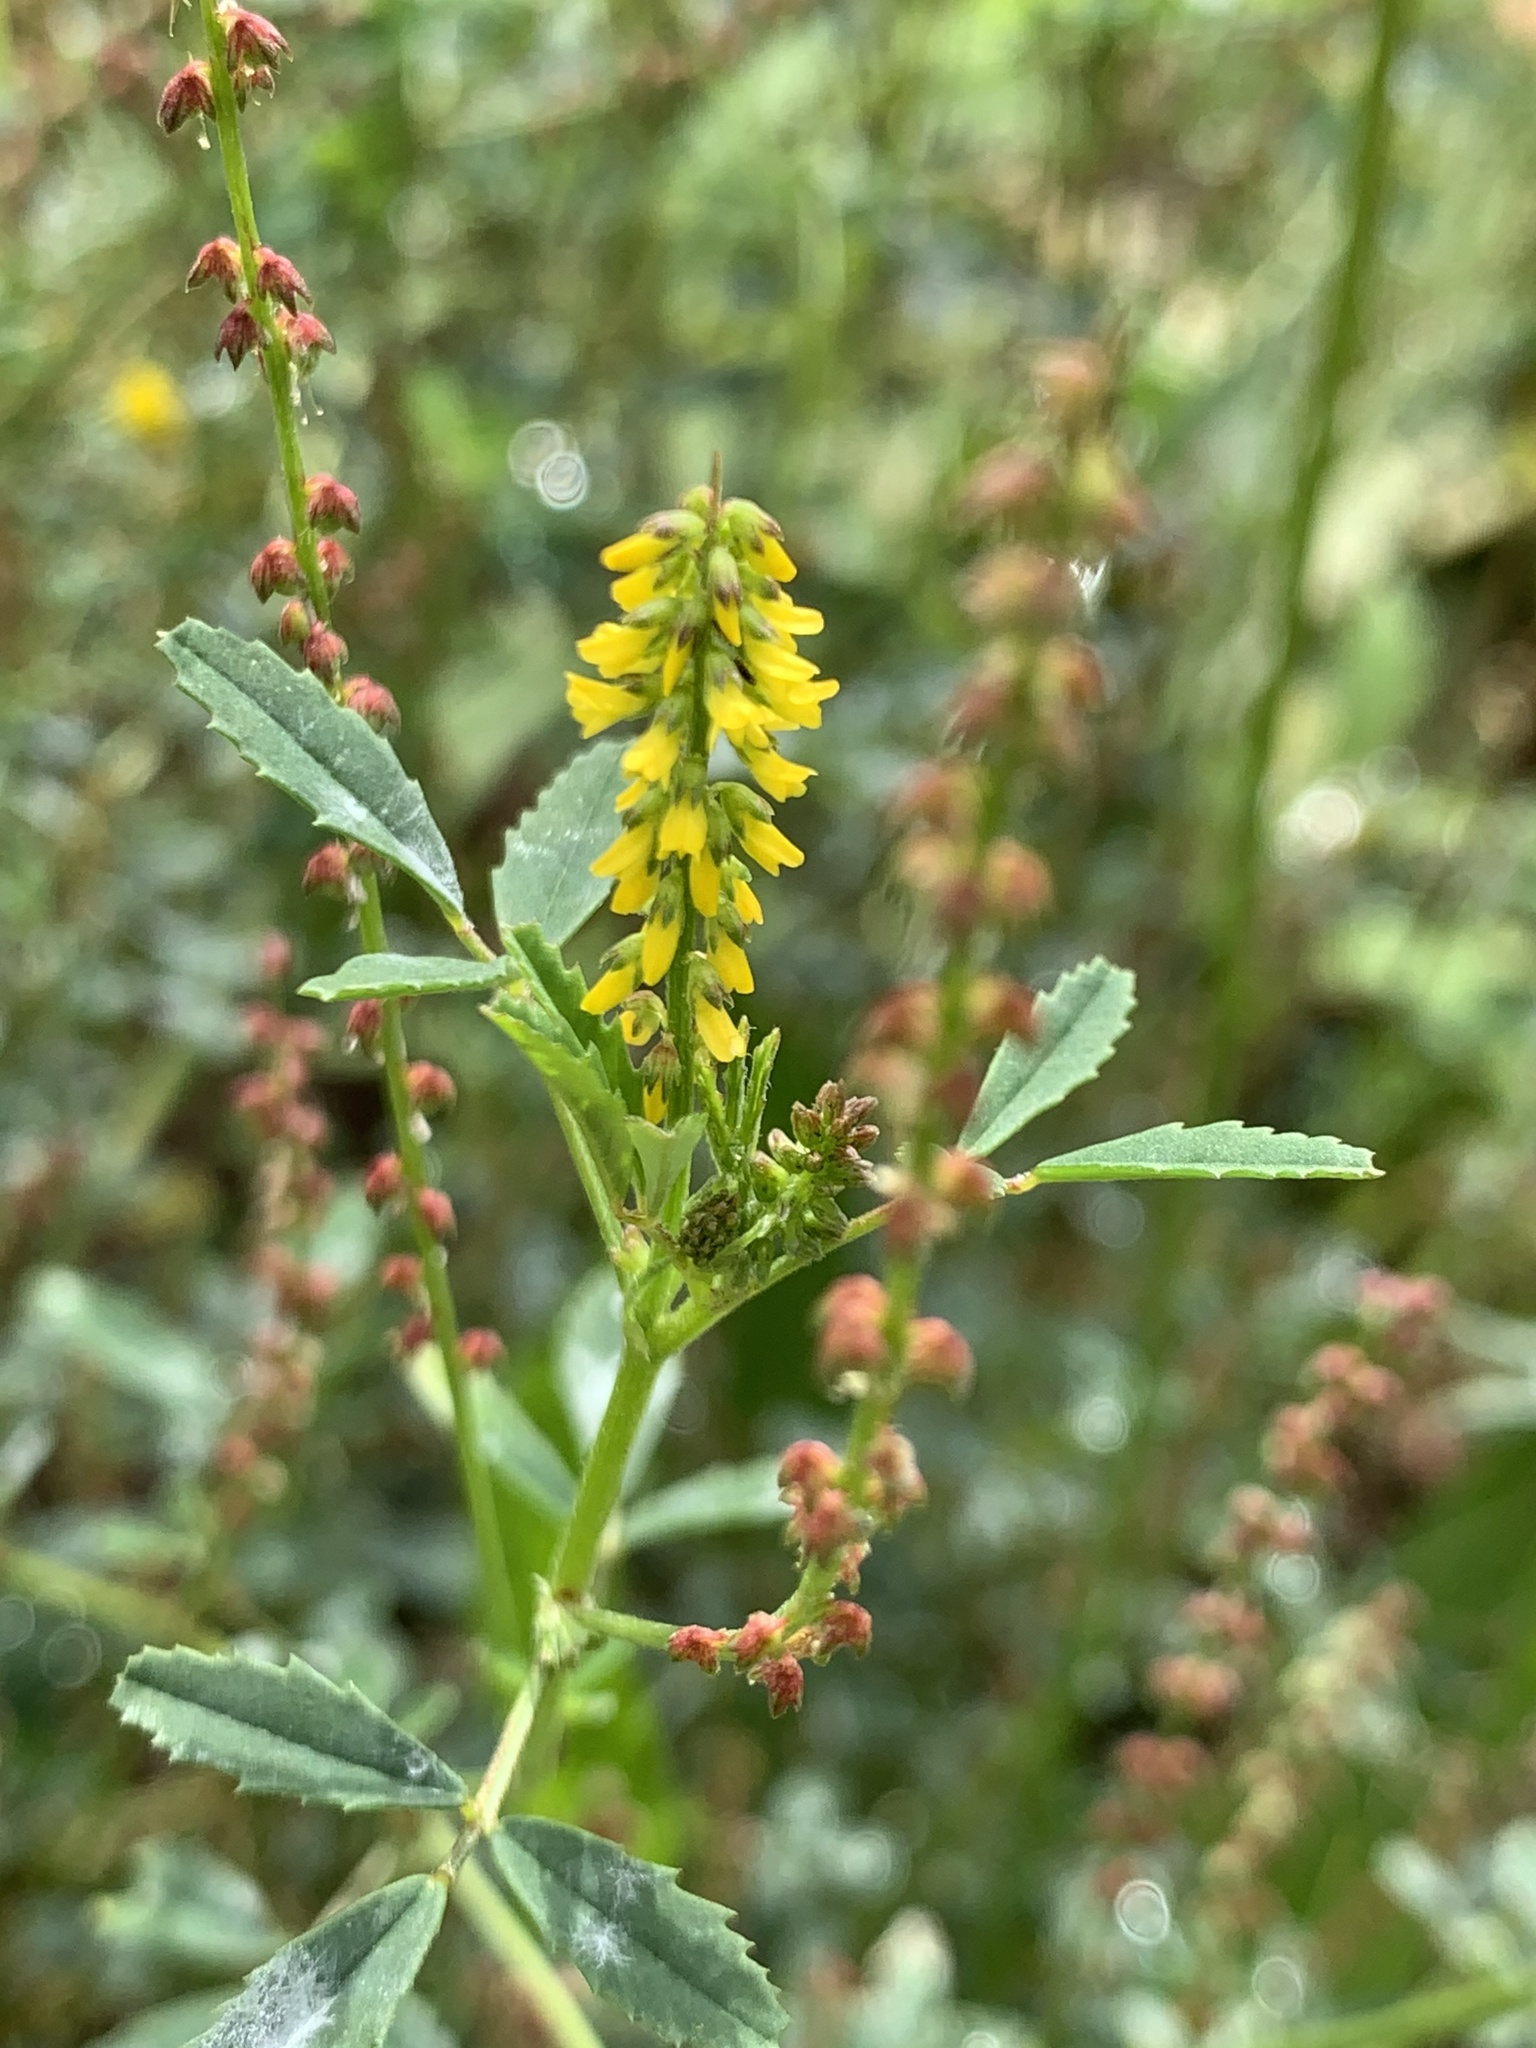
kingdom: Plantae
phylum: Tracheophyta
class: Magnoliopsida
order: Fabales
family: Fabaceae
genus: Melilotus
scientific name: Melilotus indicus
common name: Small melilot
